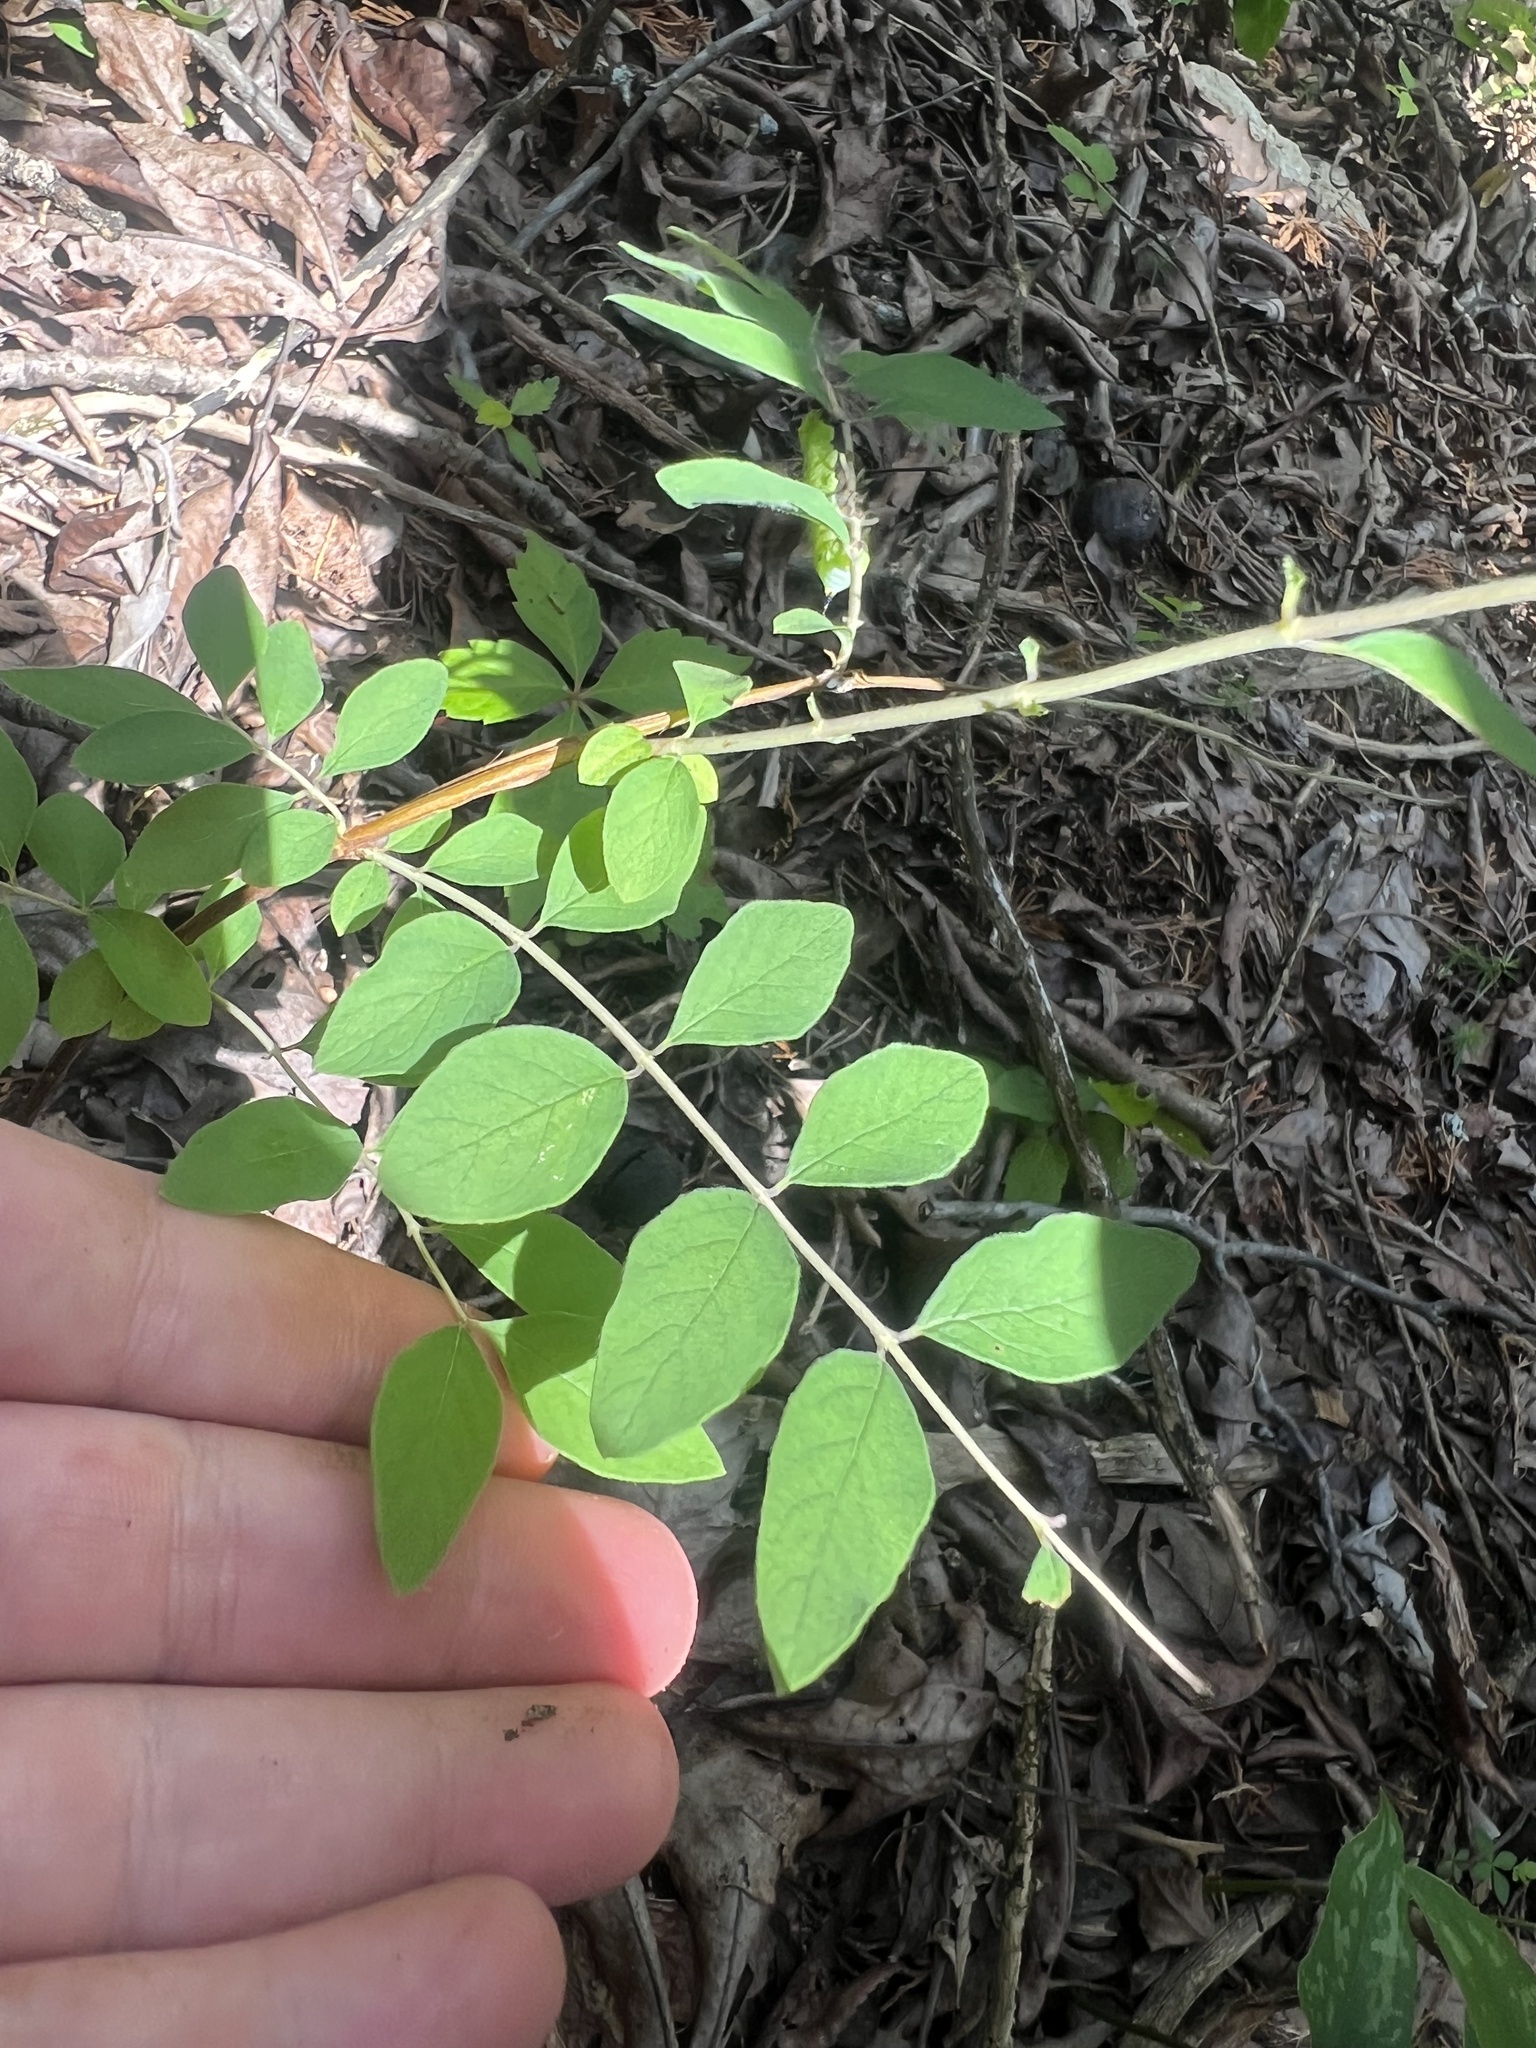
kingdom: Plantae
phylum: Tracheophyta
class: Magnoliopsida
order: Dipsacales
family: Caprifoliaceae
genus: Symphoricarpos
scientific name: Symphoricarpos orbiculatus
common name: Coralberry
